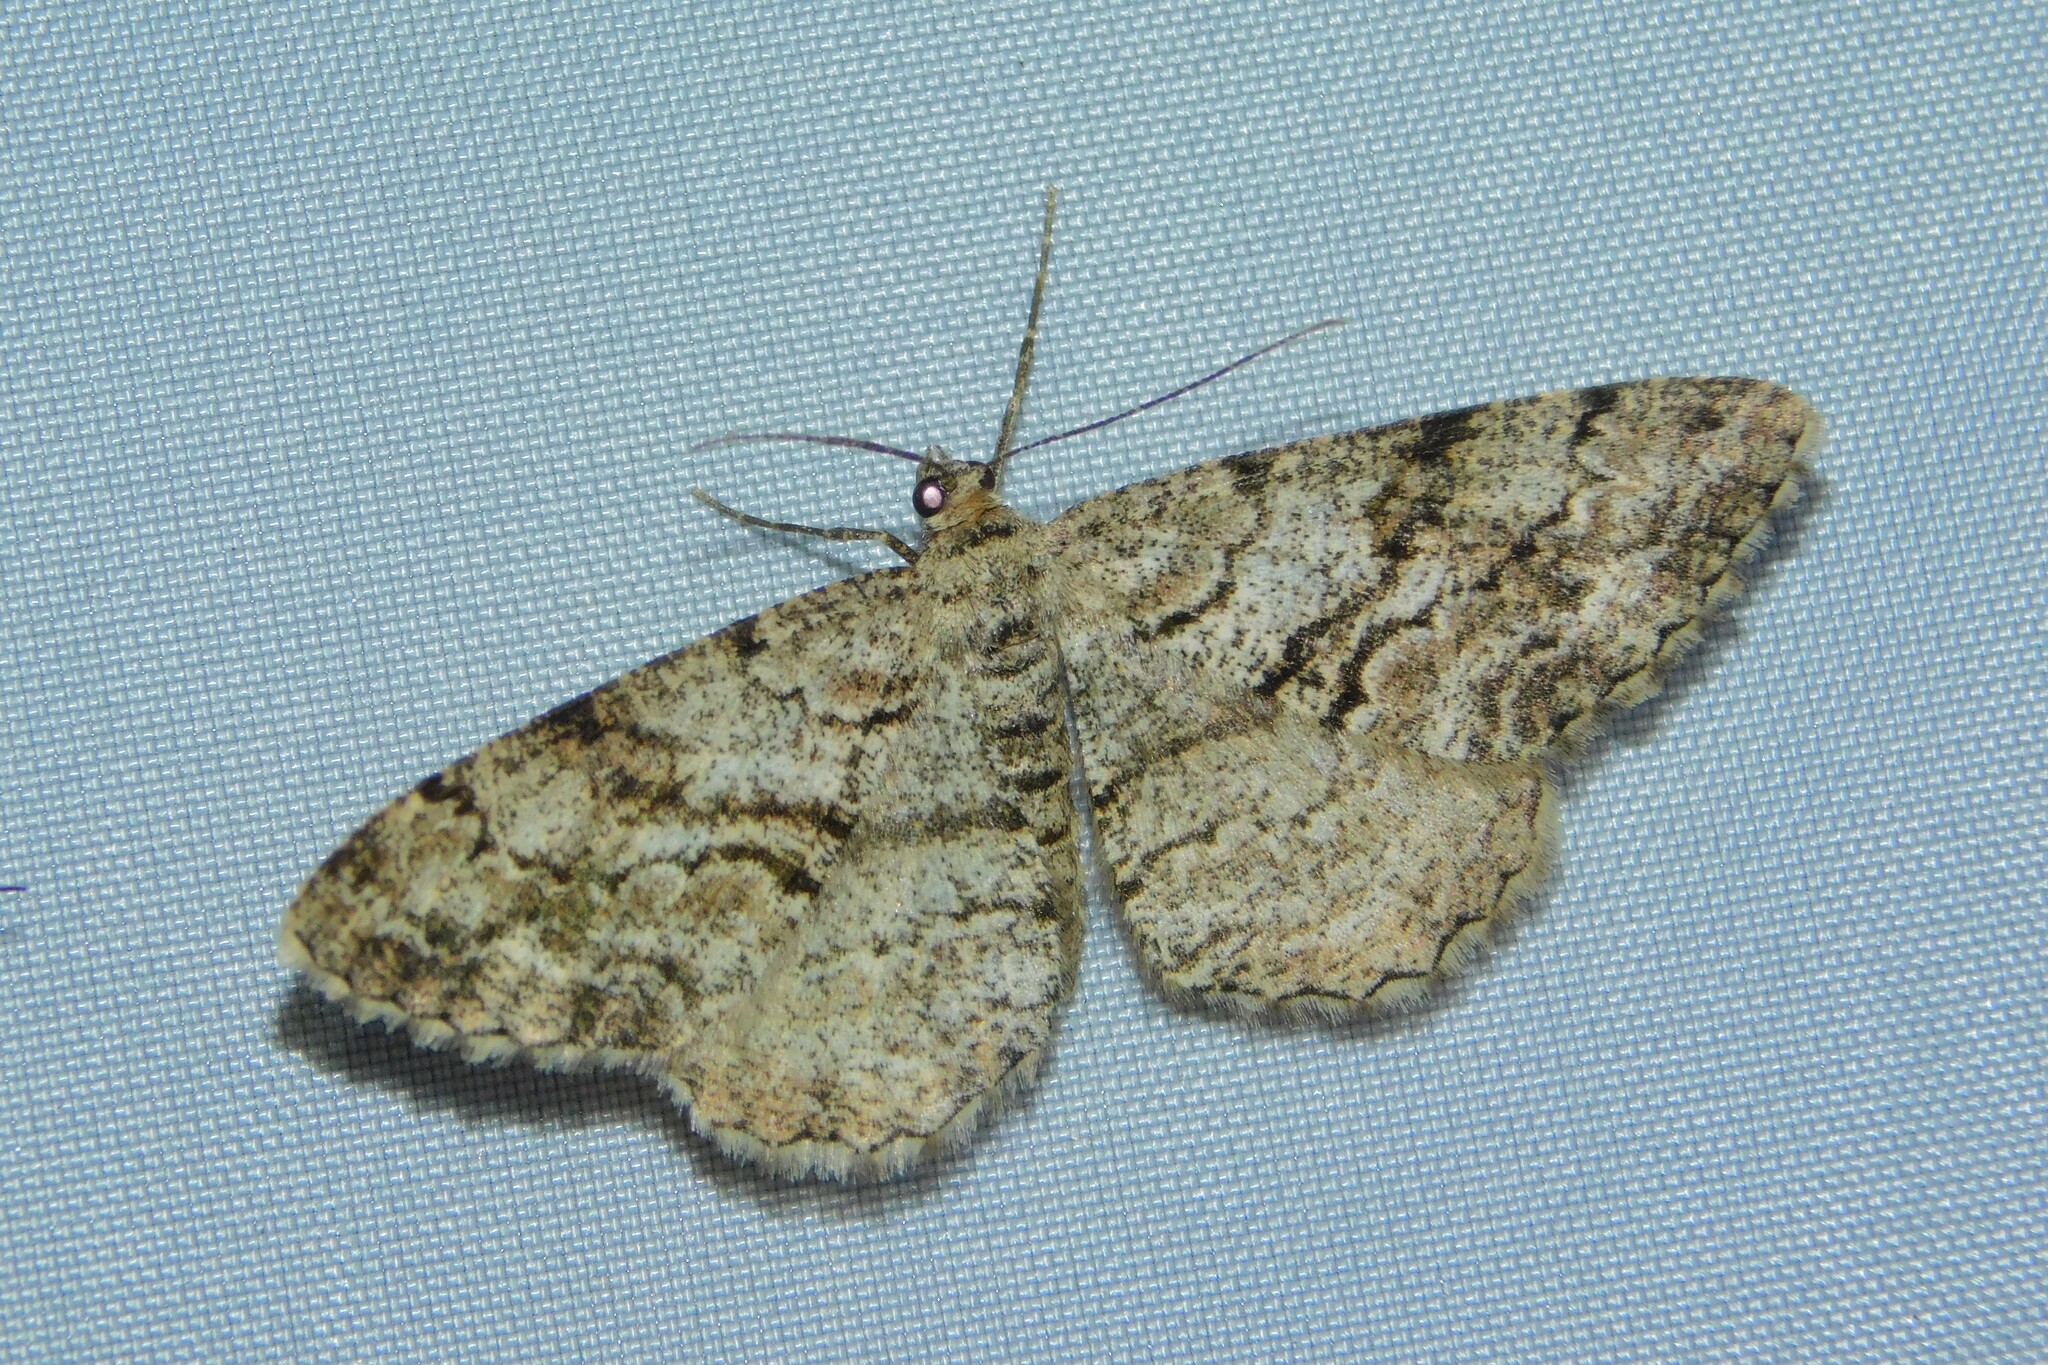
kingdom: Animalia
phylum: Arthropoda
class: Insecta
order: Lepidoptera
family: Geometridae
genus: Peribatodes
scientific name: Peribatodes secundaria
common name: Feathered beauty
